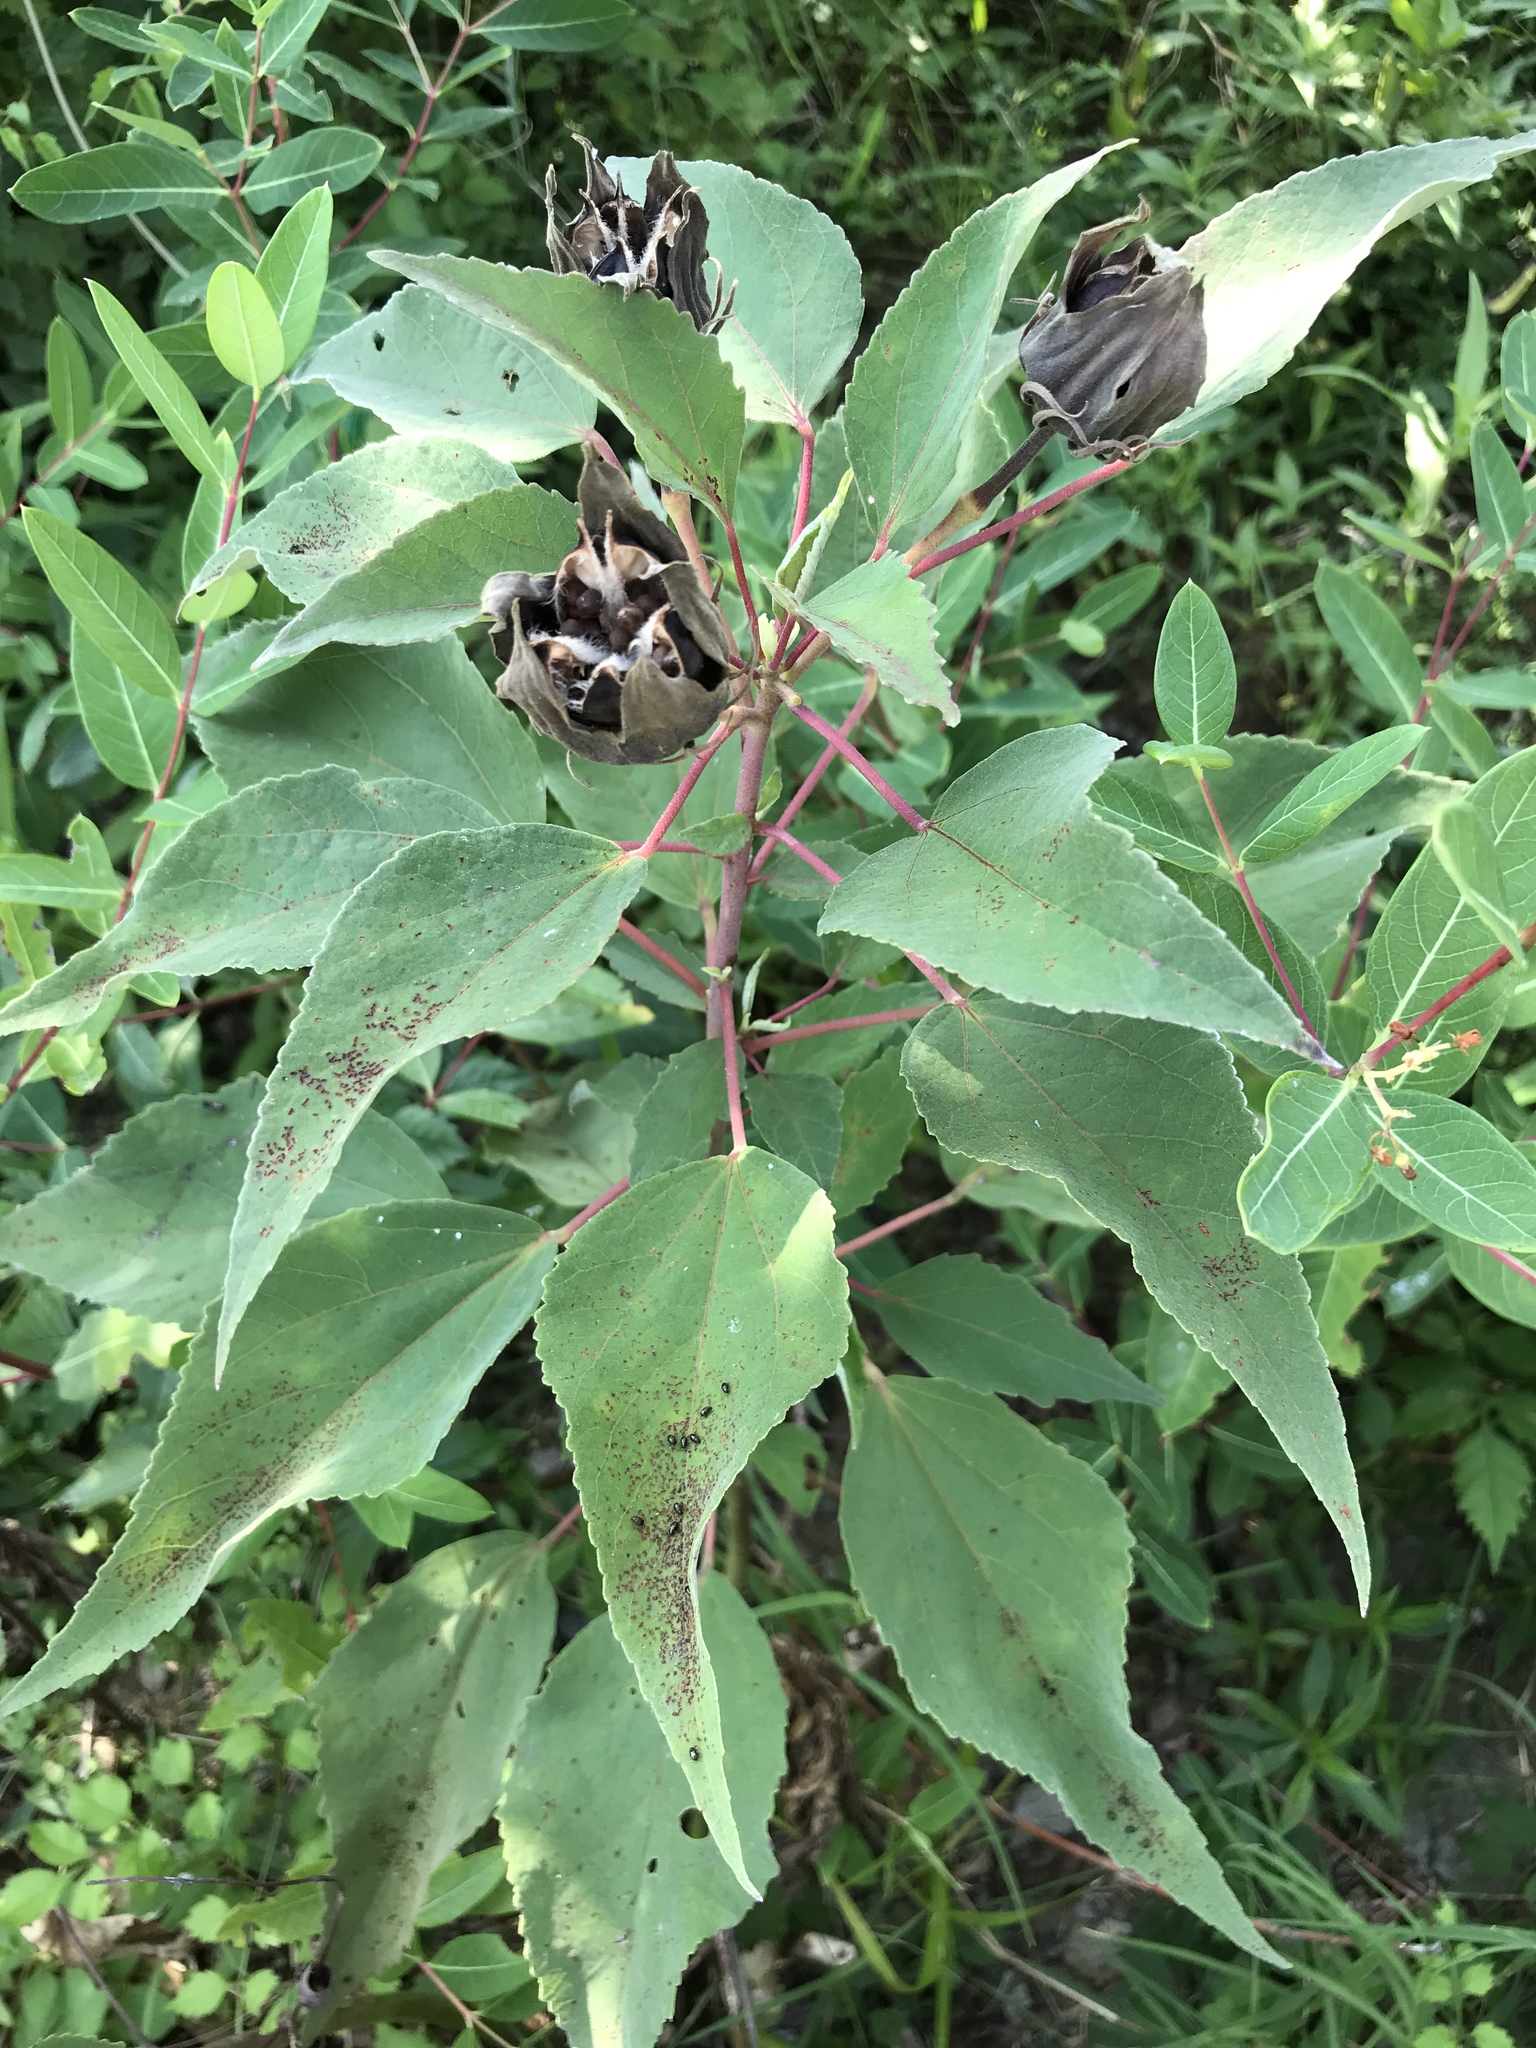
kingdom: Plantae
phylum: Tracheophyta
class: Magnoliopsida
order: Malvales
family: Malvaceae
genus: Hibiscus
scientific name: Hibiscus moscheutos
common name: Common rose-mallow
